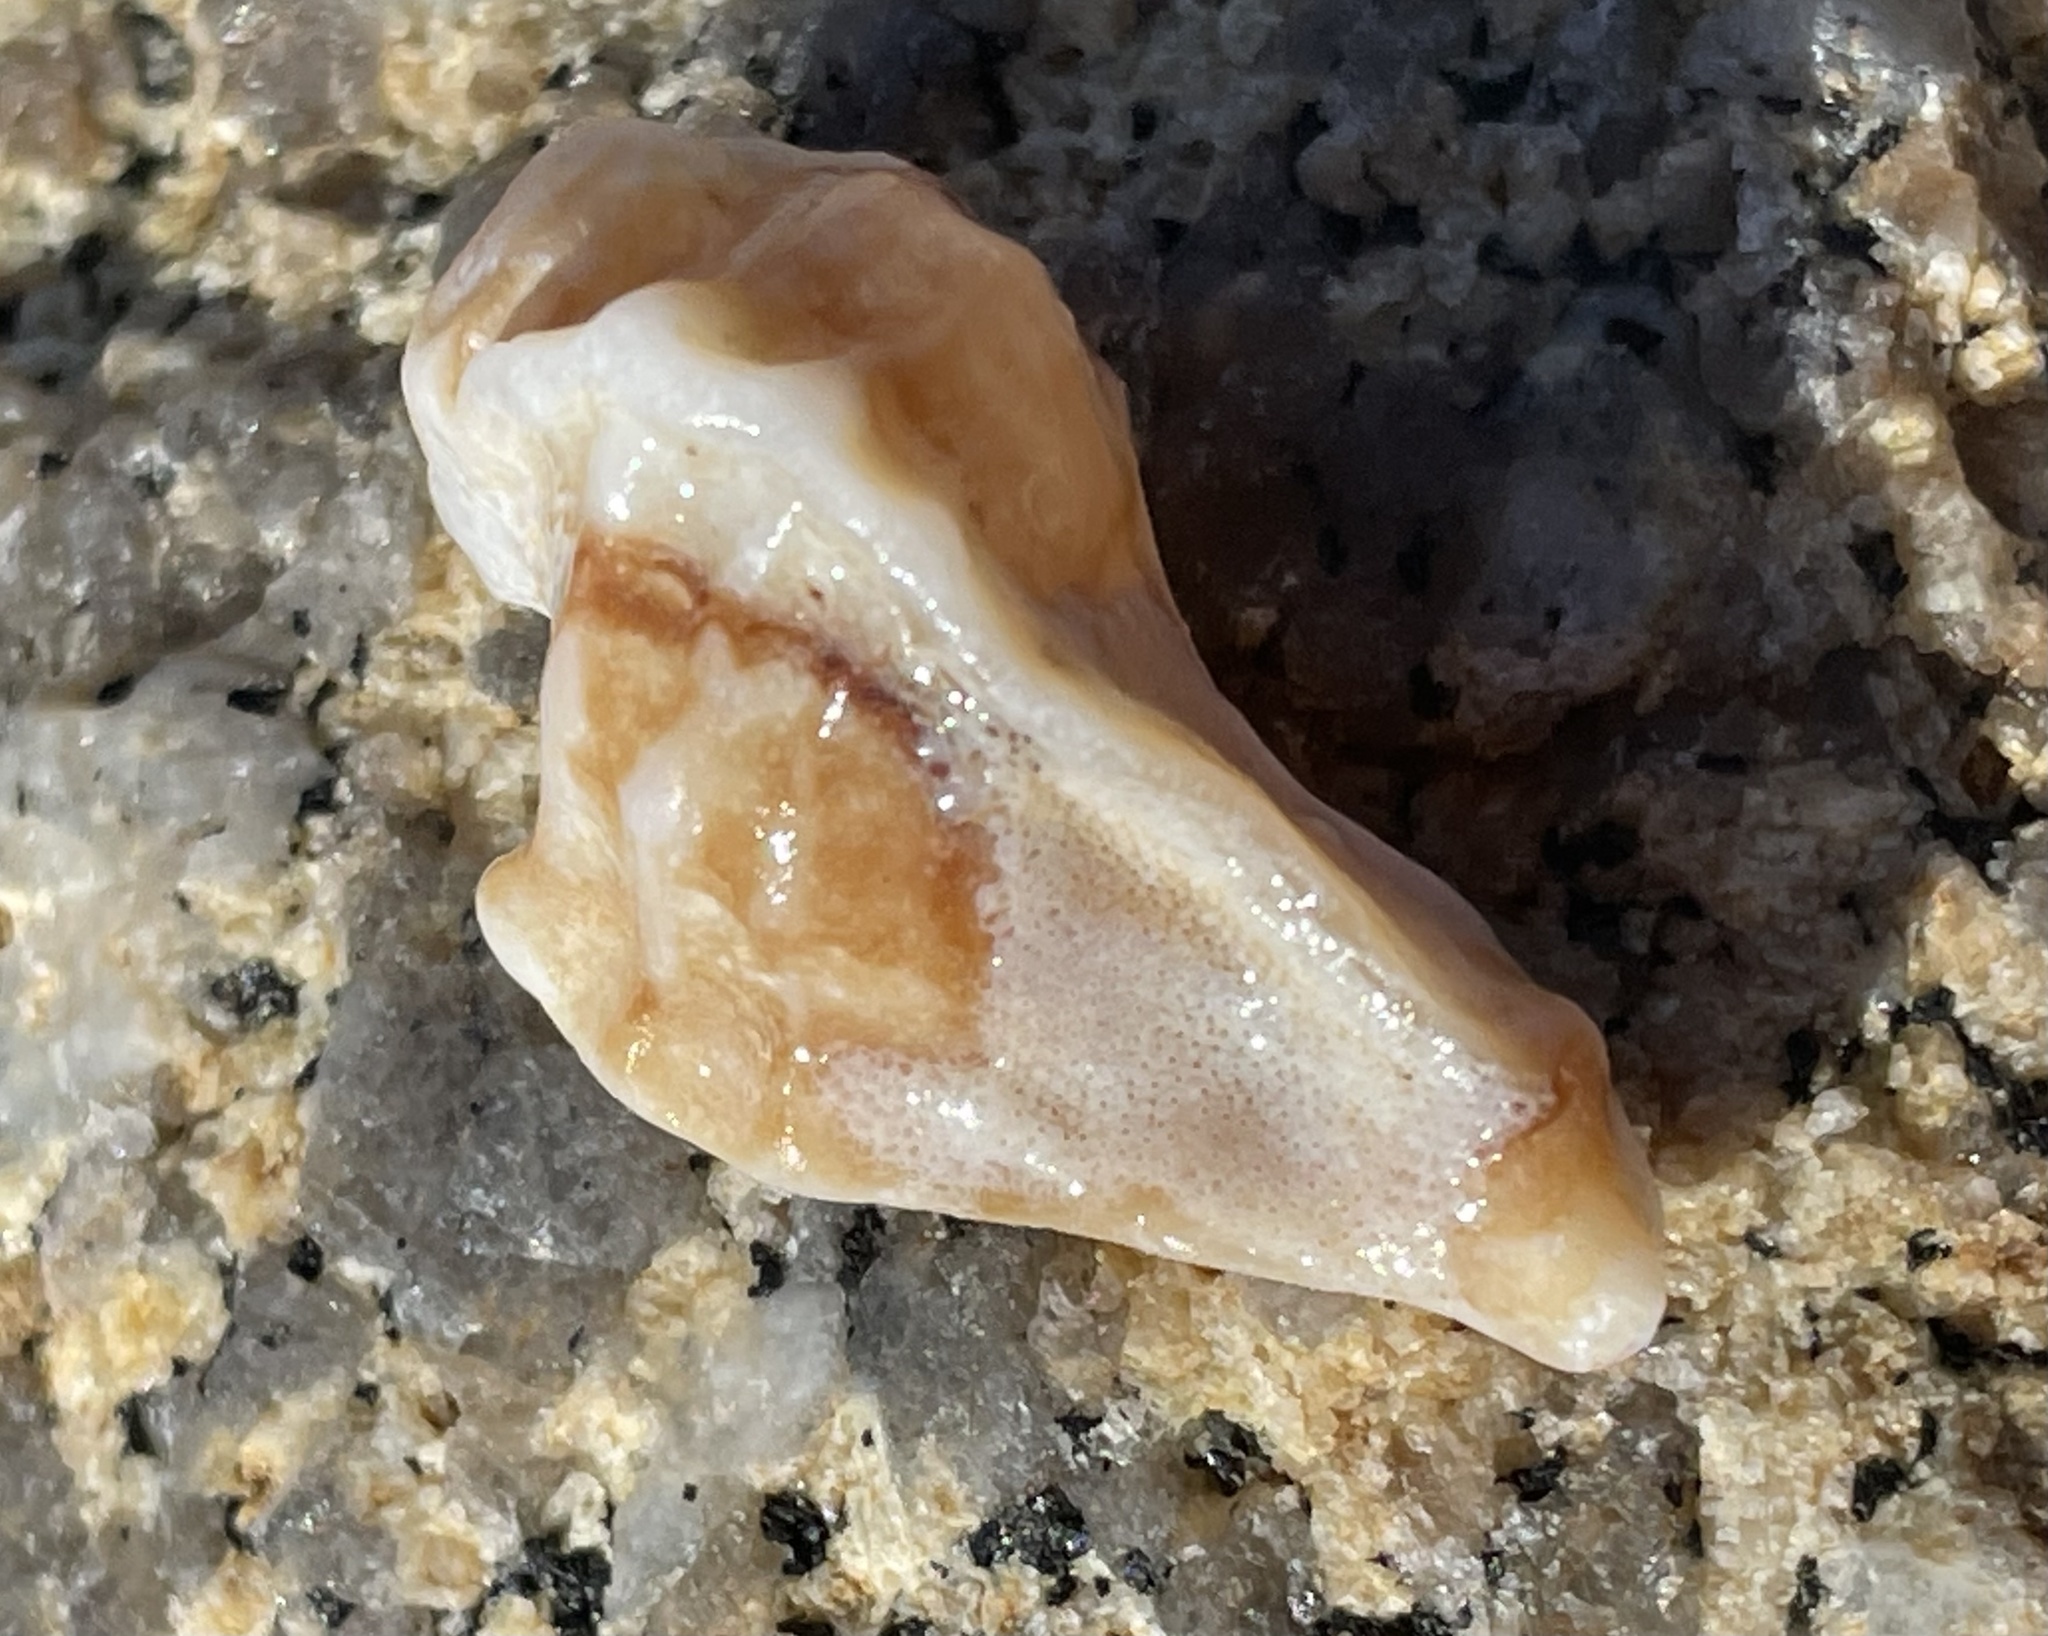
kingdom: Animalia
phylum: Mollusca
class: Gastropoda
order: Neogastropoda
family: Muricidae
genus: Ceratostoma
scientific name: Ceratostoma foliatum
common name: Foliate thorn purpura
